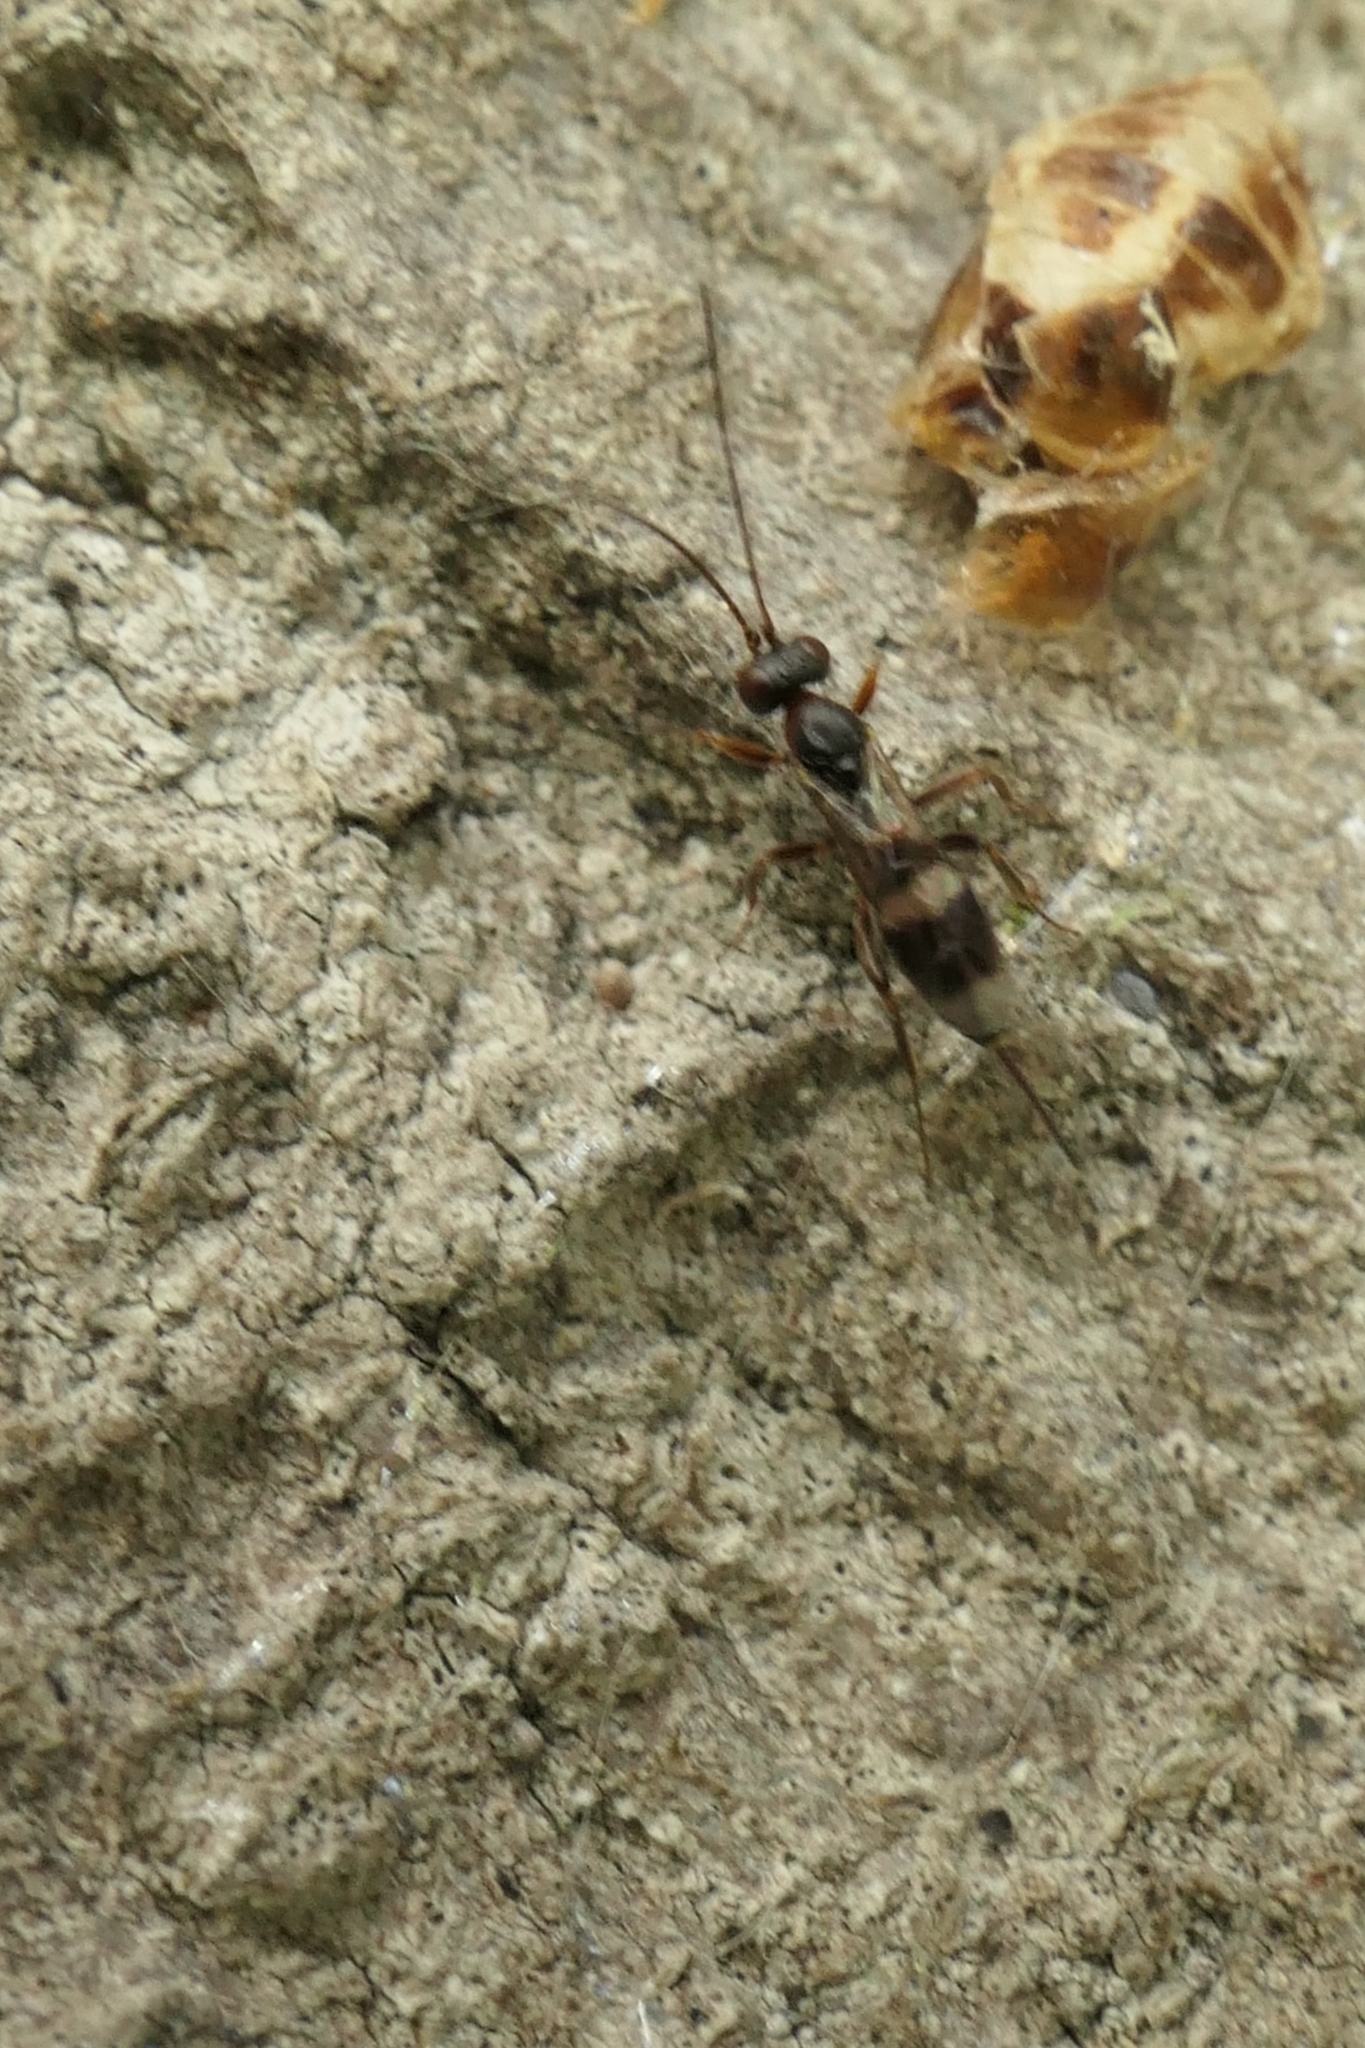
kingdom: Animalia
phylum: Arthropoda
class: Insecta
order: Hymenoptera
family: Ichneumonidae
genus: Gelis
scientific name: Gelis tenellus
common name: Parasitoid wasp
